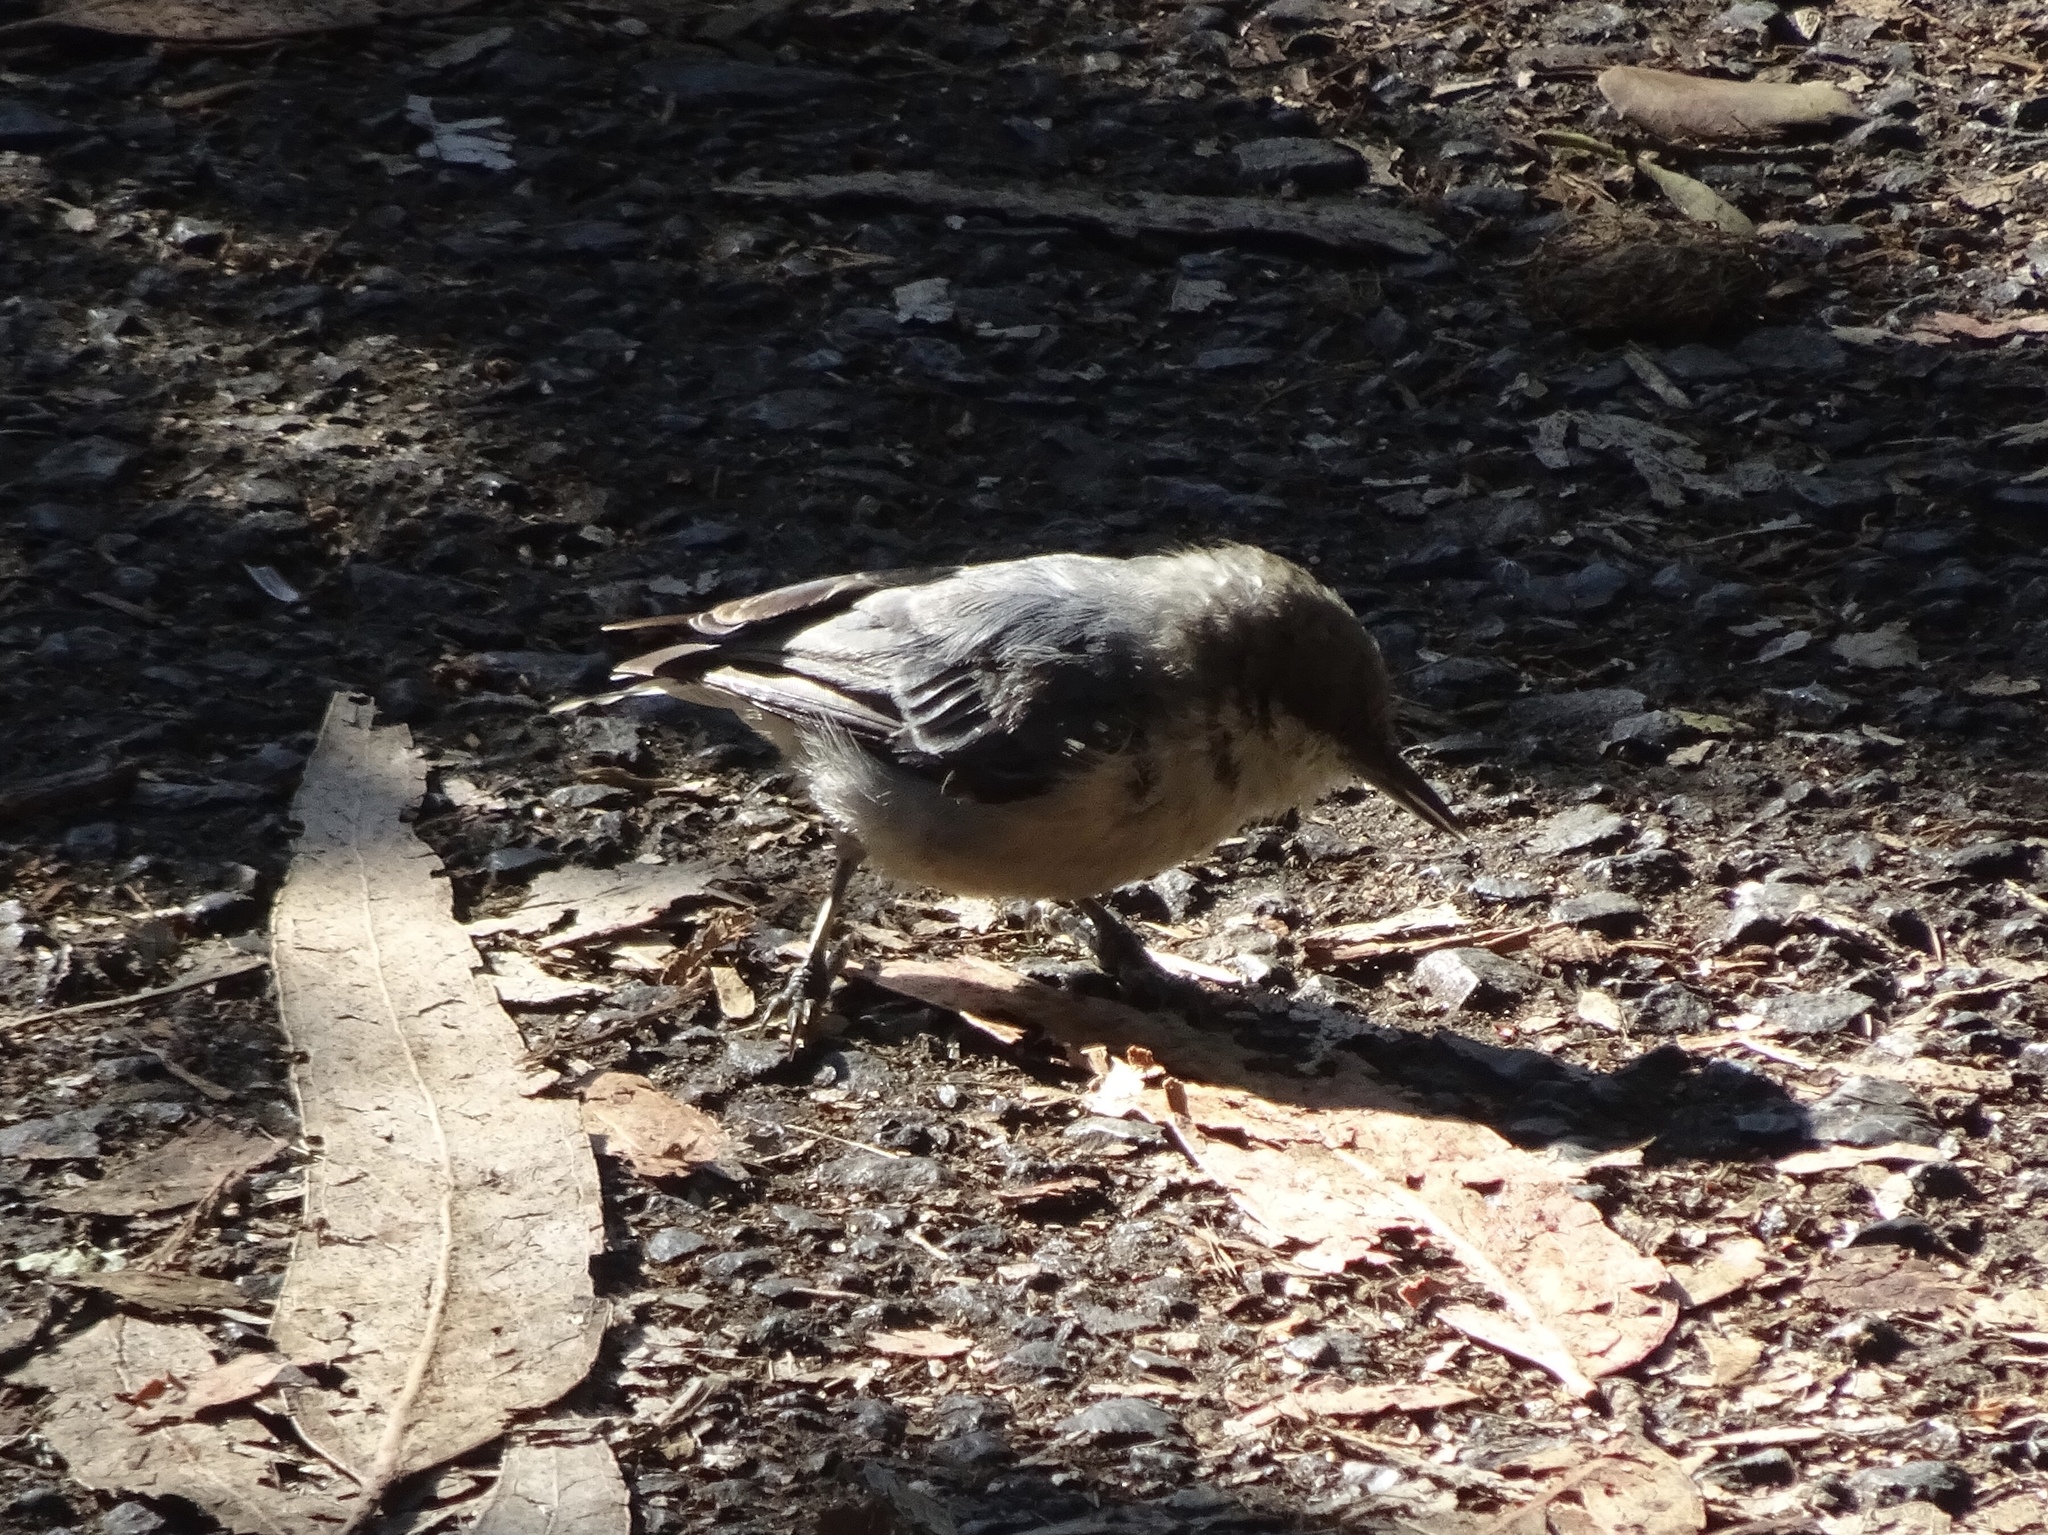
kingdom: Animalia
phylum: Chordata
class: Aves
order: Passeriformes
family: Sittidae
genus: Sitta
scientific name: Sitta pygmaea
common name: Pygmy nuthatch
